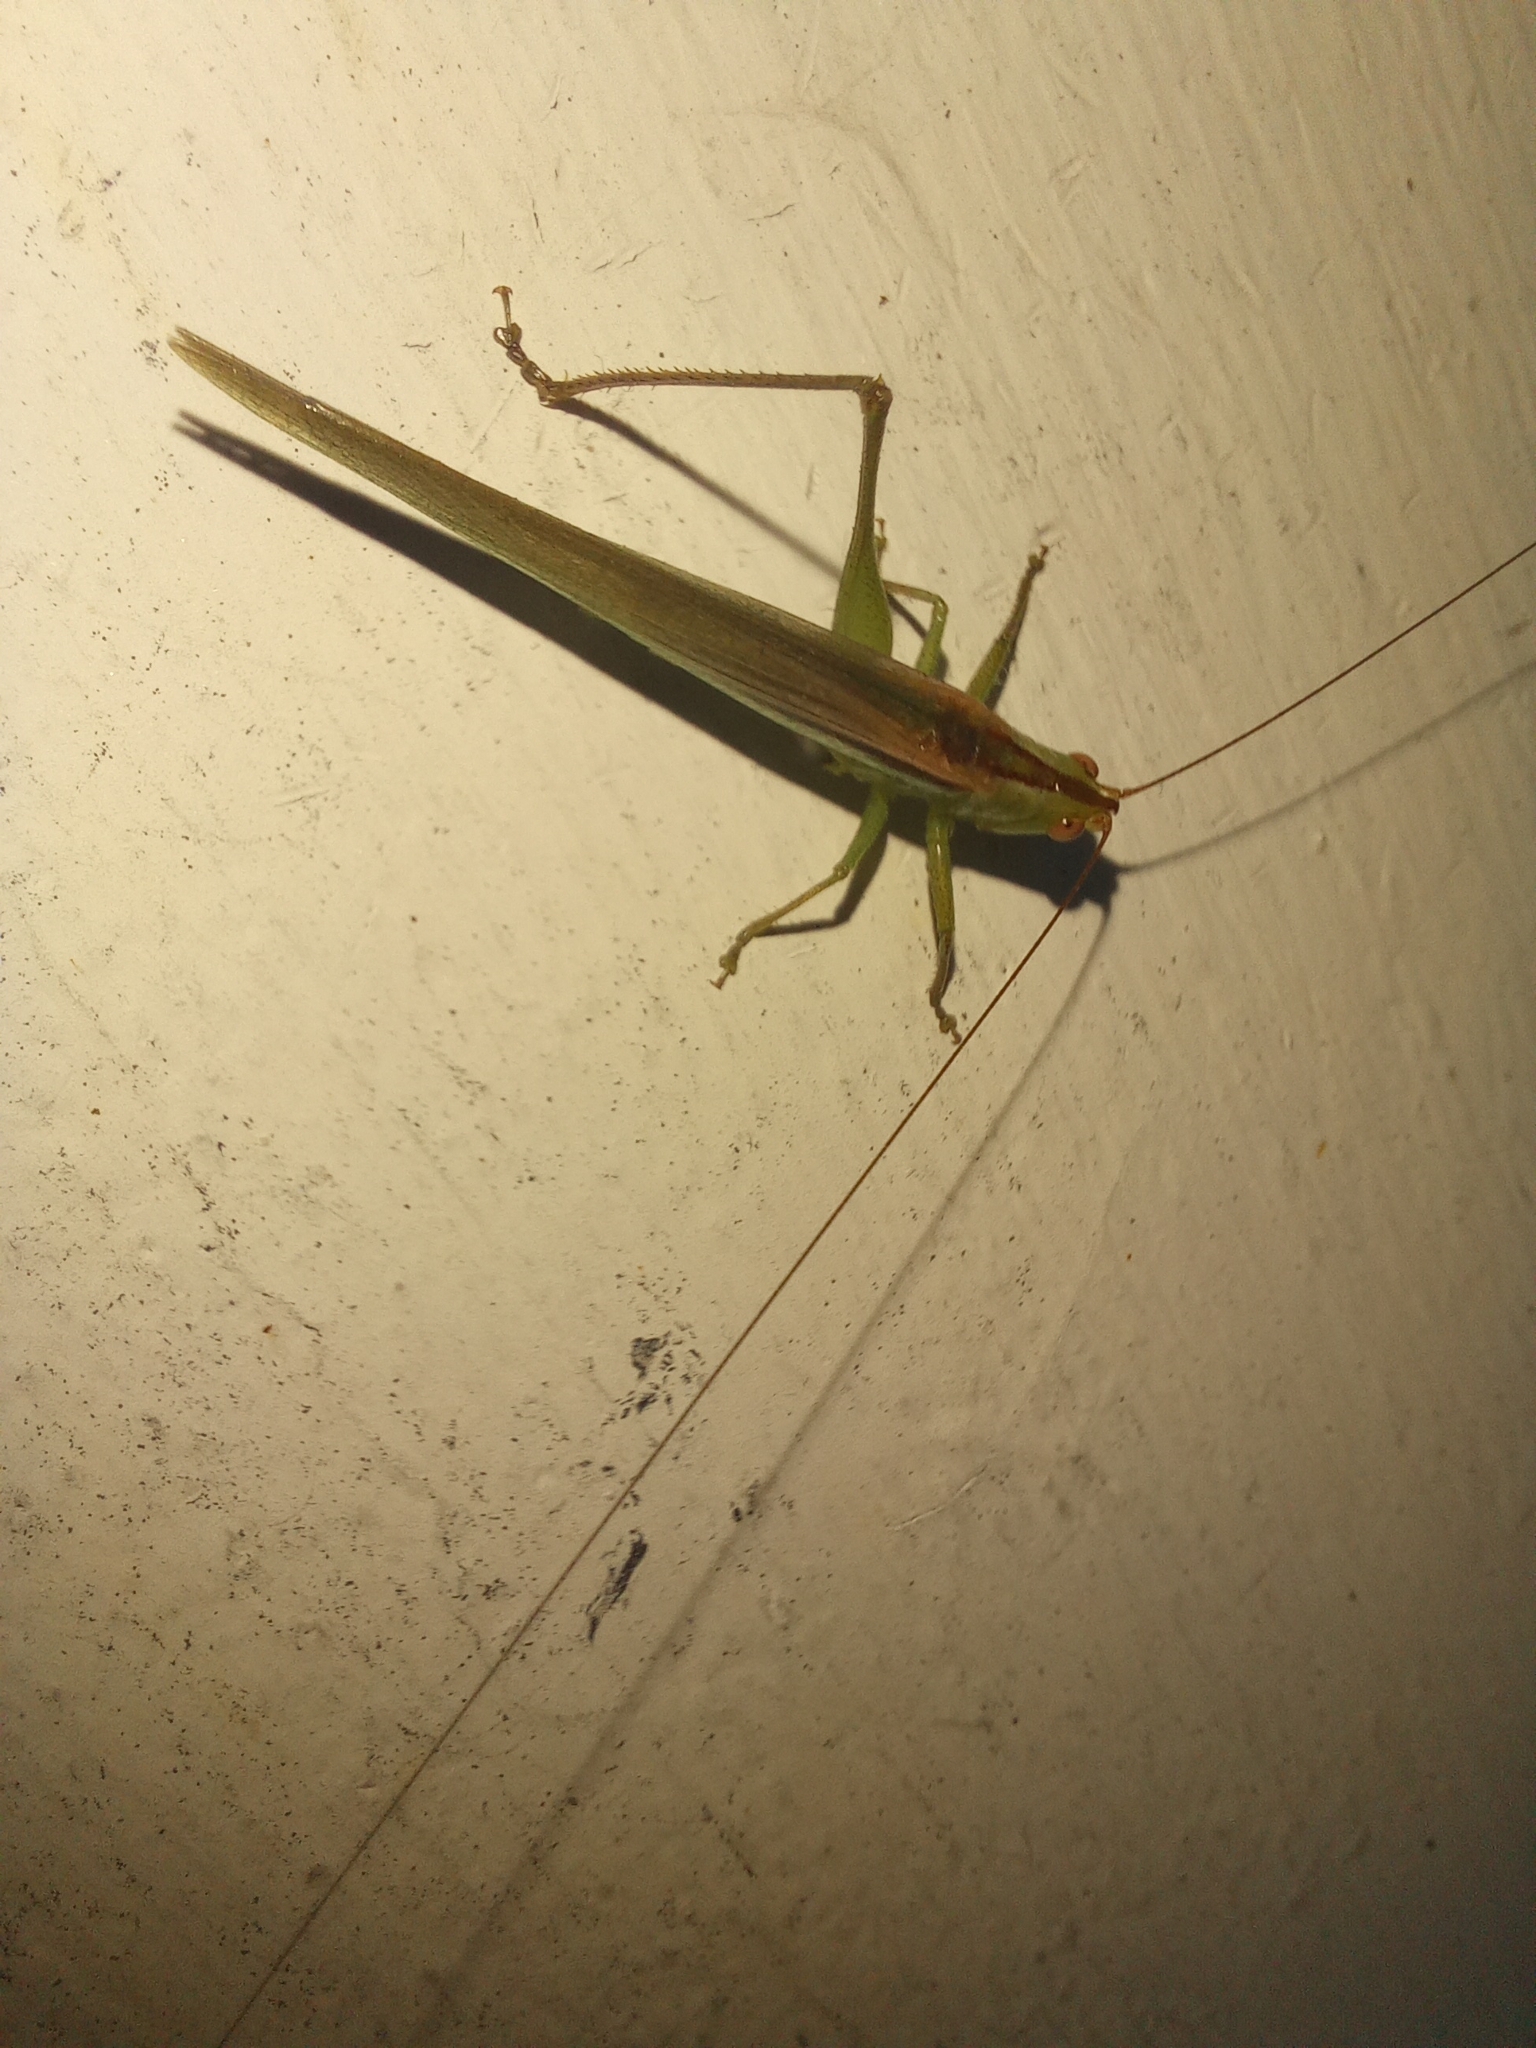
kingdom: Animalia
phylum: Arthropoda
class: Insecta
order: Orthoptera
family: Tettigoniidae
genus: Conocephalus
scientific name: Conocephalus longipes
